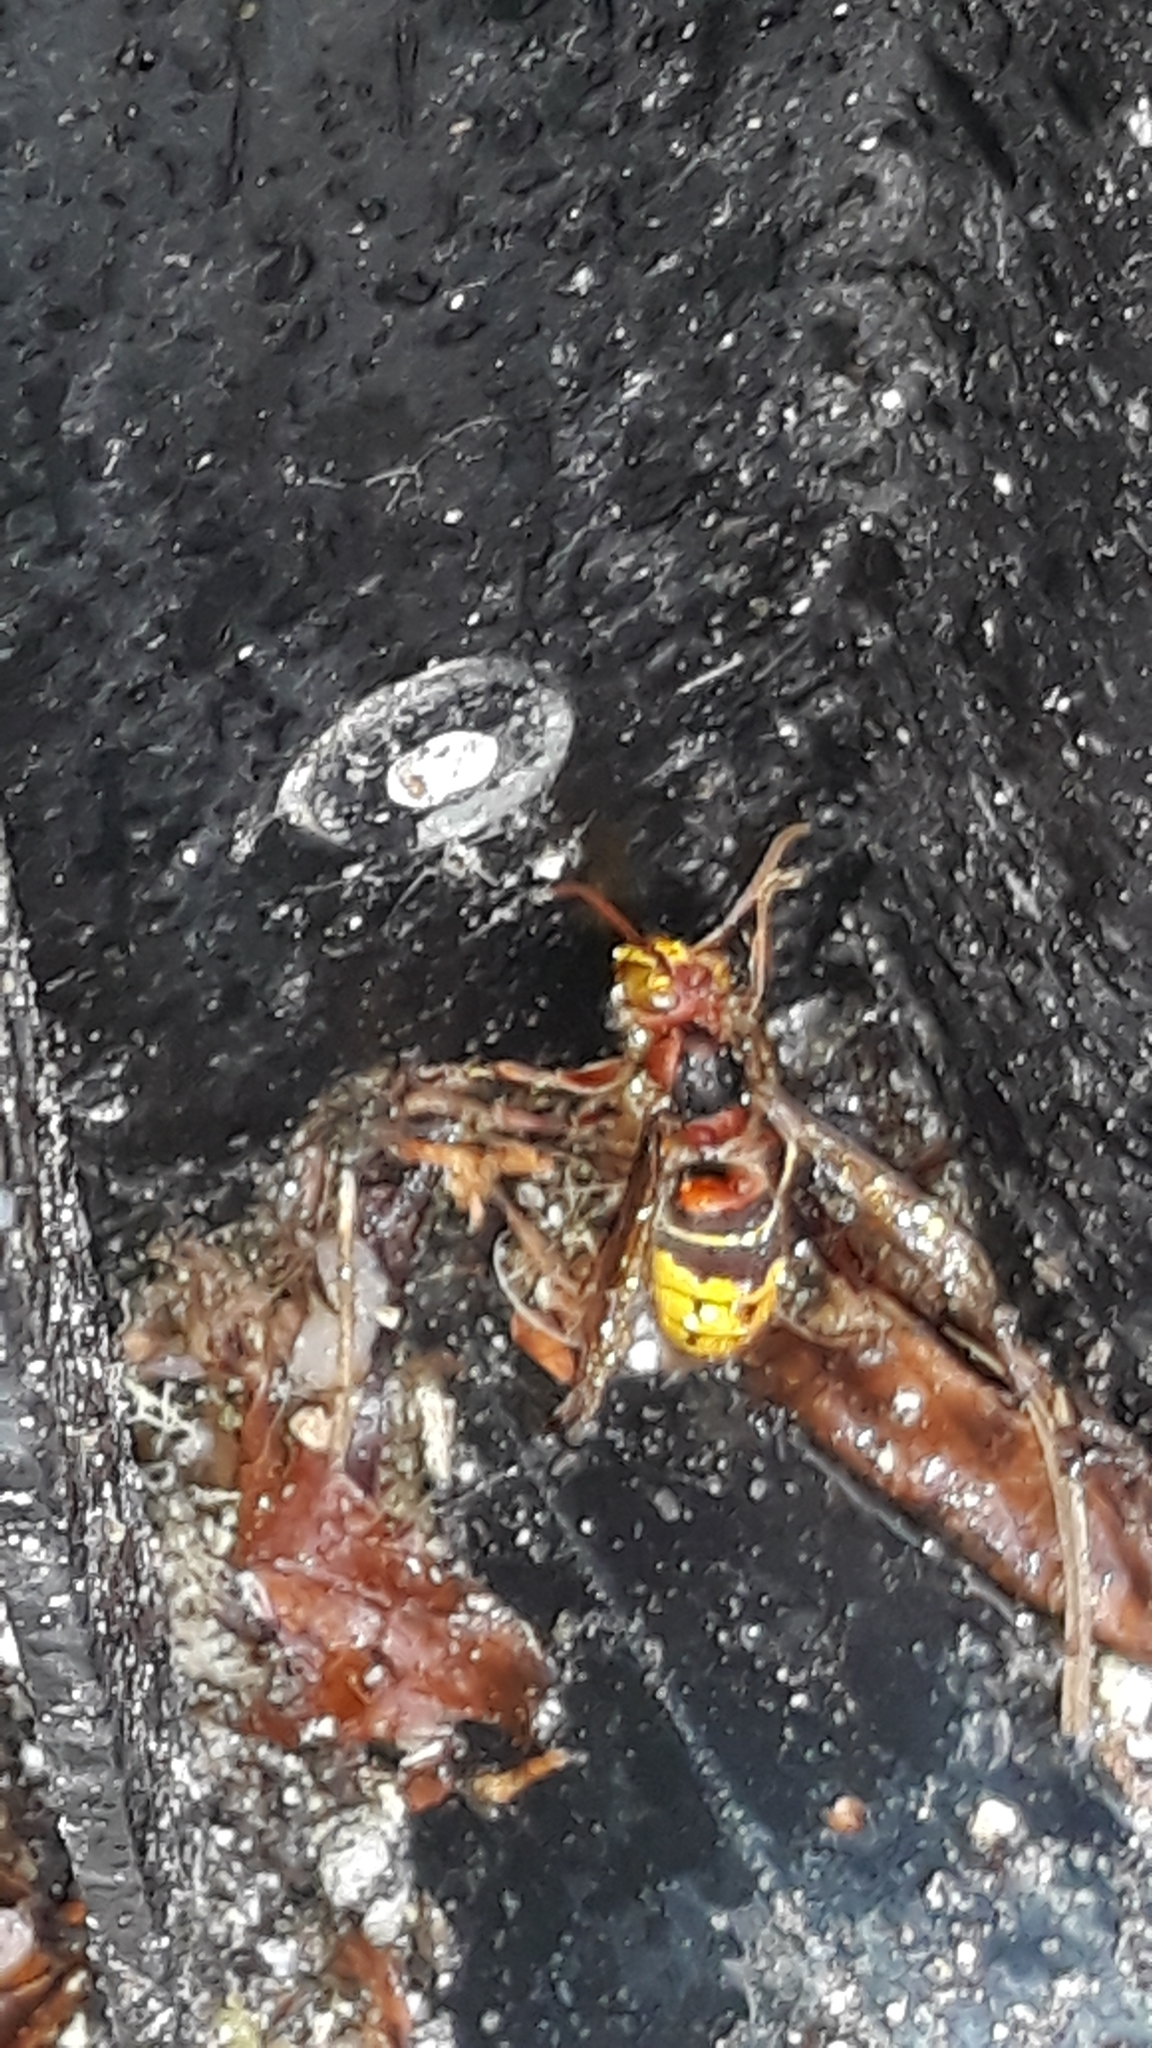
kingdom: Animalia
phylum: Arthropoda
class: Insecta
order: Hymenoptera
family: Vespidae
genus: Vespa
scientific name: Vespa crabro
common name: Hornet
